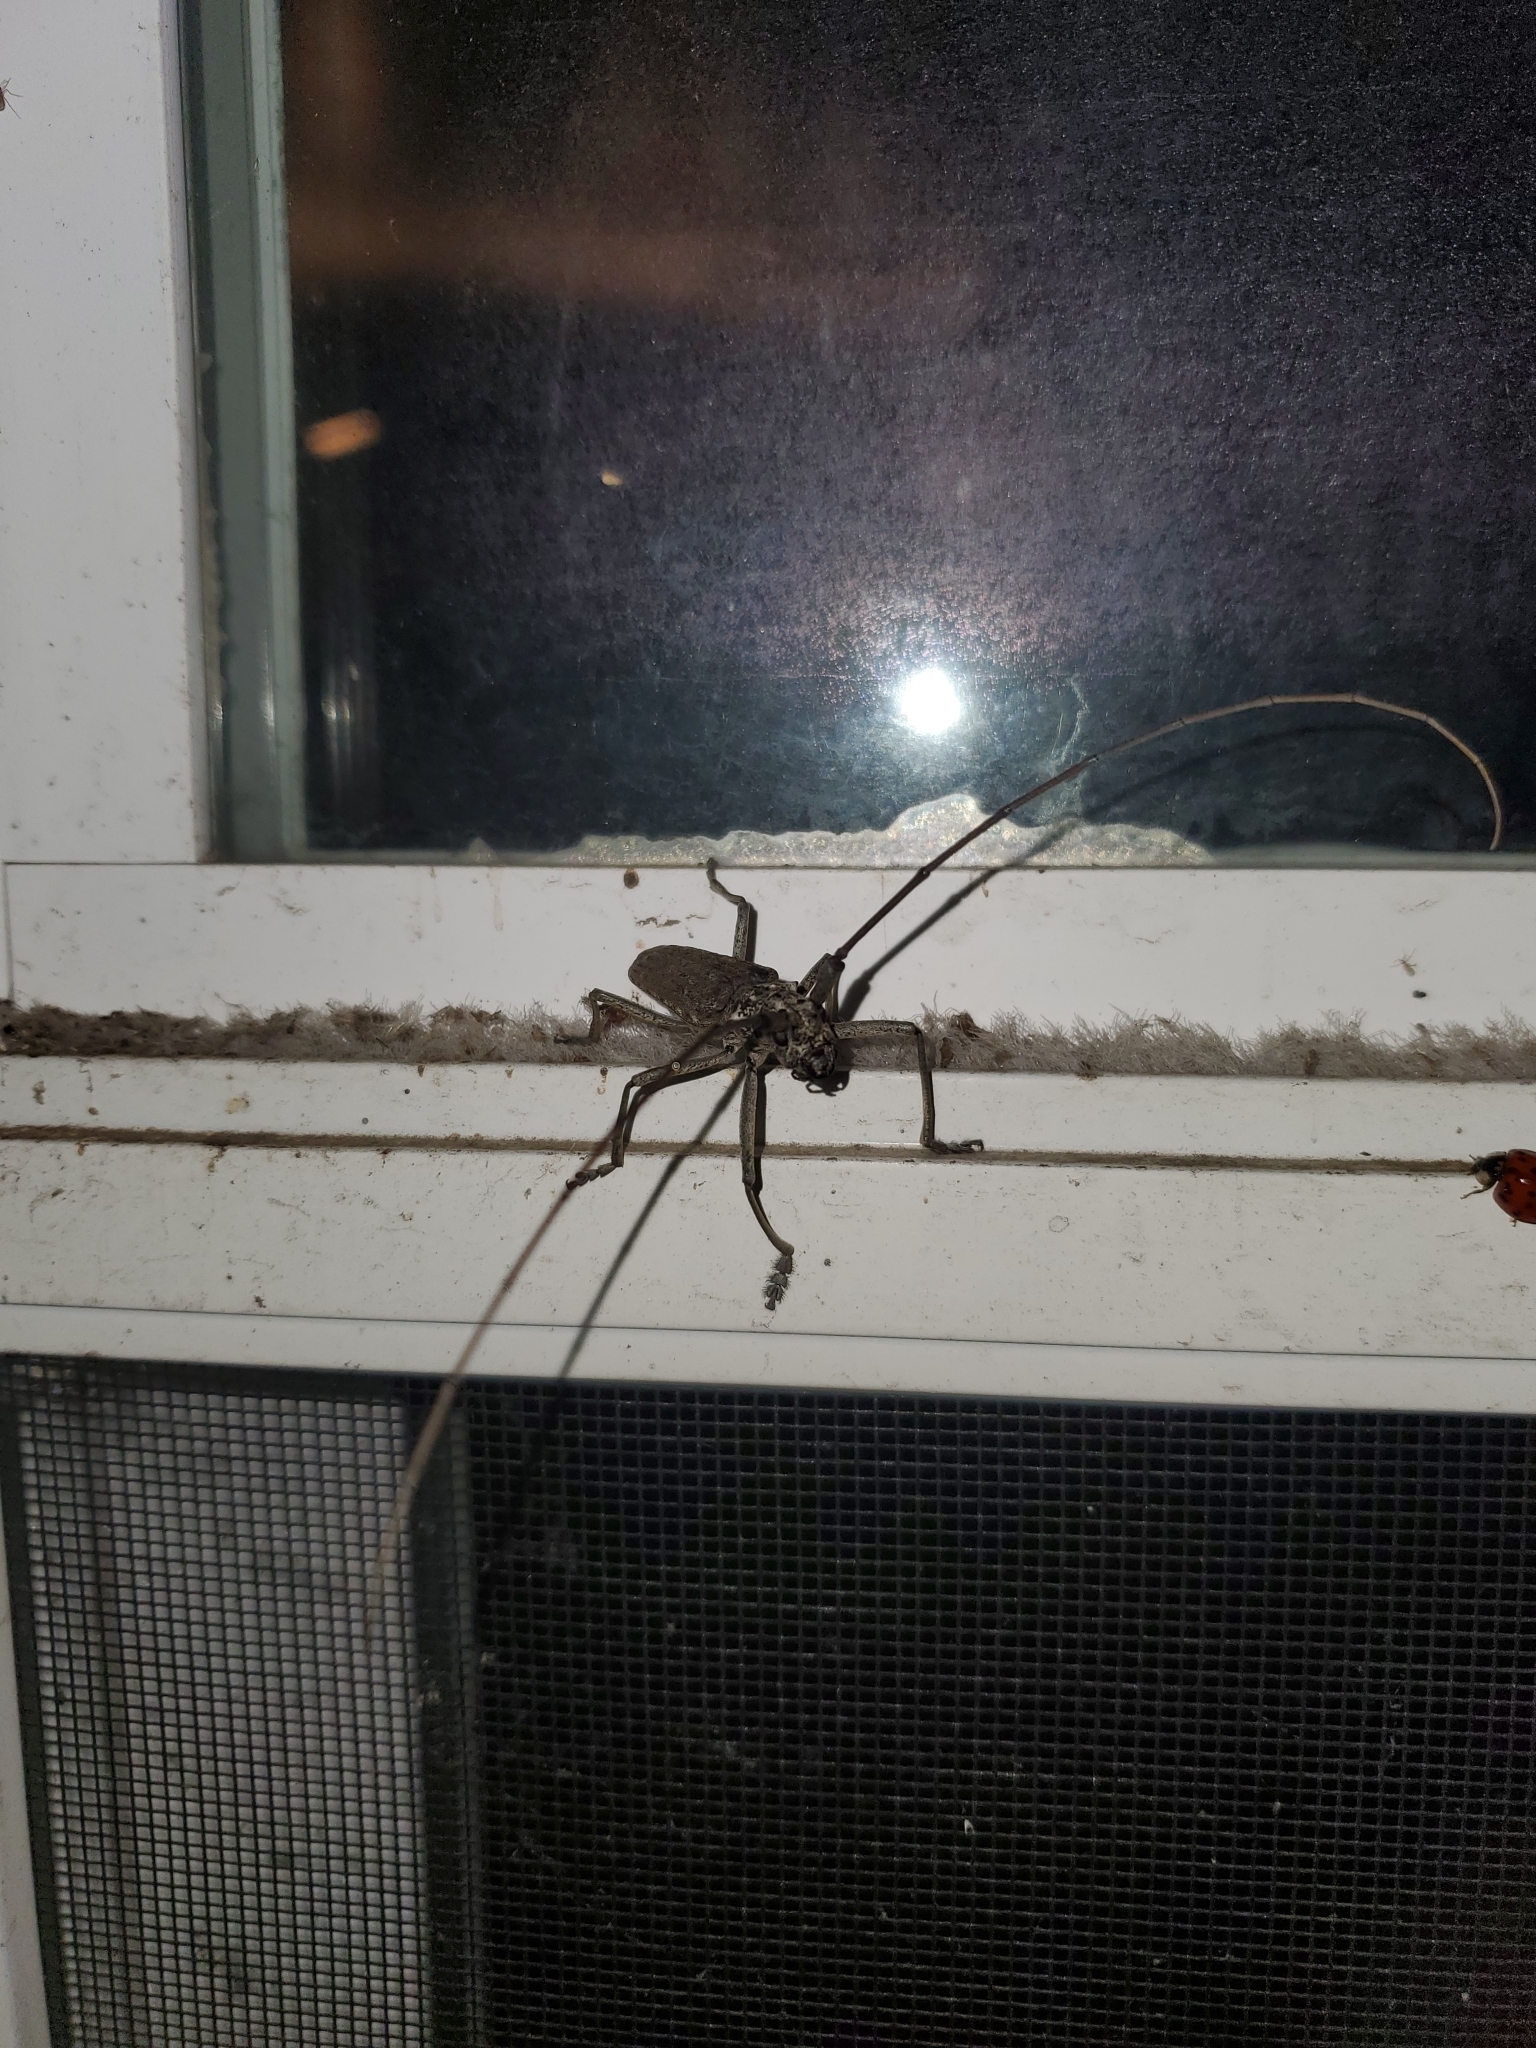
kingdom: Animalia
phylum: Arthropoda
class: Insecta
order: Coleoptera
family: Cerambycidae
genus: Monochamus
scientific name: Monochamus notatus
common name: Northeastern pine sawyer beetle
